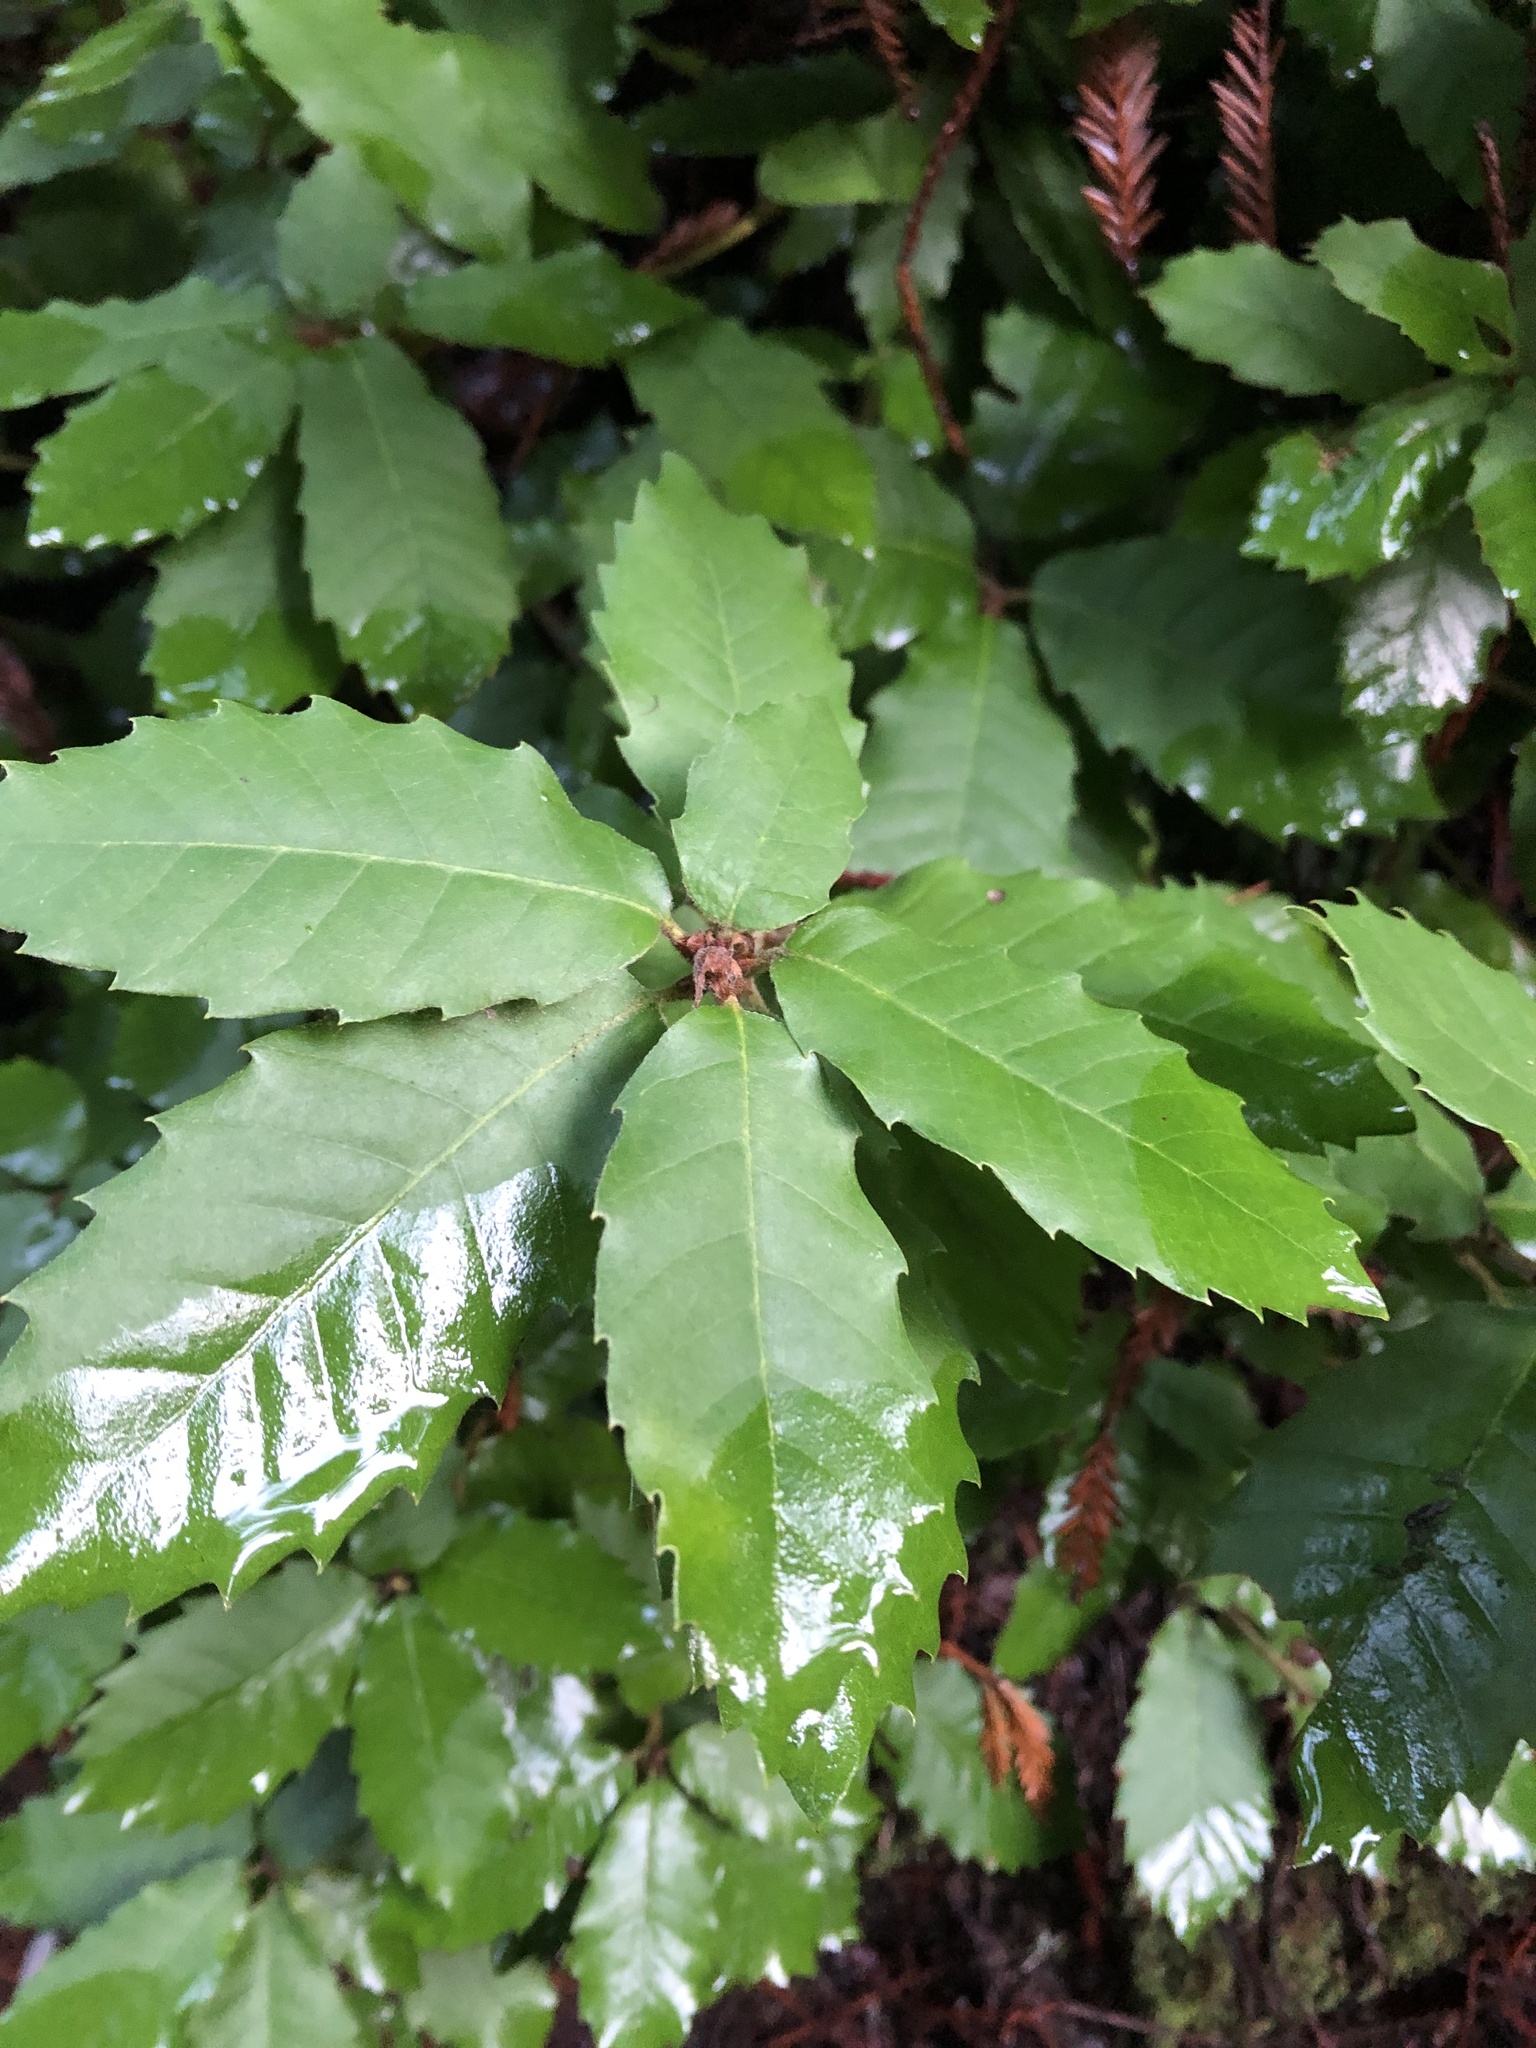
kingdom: Plantae
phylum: Tracheophyta
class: Magnoliopsida
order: Fagales
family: Fagaceae
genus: Notholithocarpus
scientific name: Notholithocarpus densiflorus
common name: Tan bark oak
